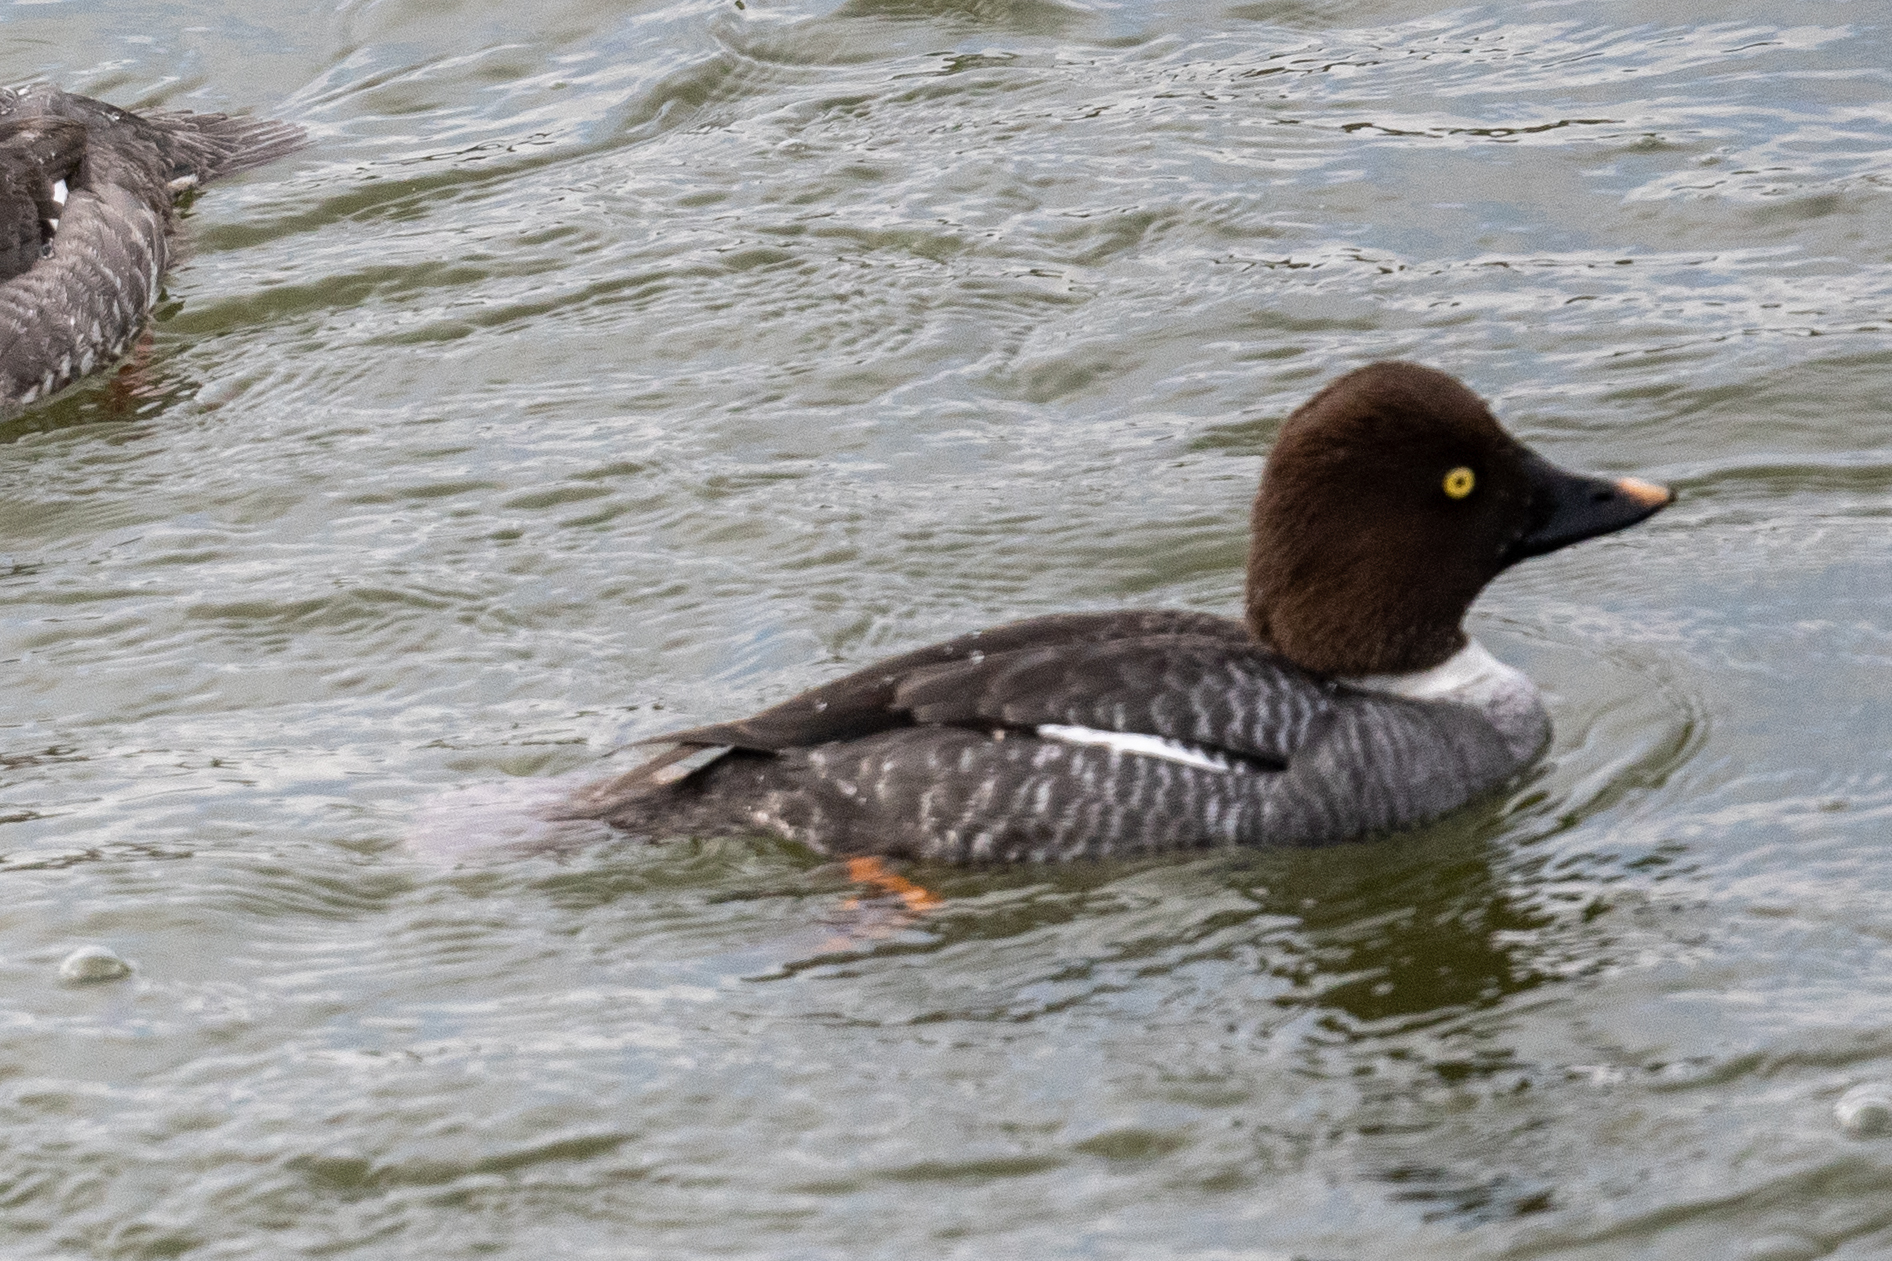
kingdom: Animalia
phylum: Chordata
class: Aves
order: Anseriformes
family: Anatidae
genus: Bucephala
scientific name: Bucephala clangula
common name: Common goldeneye
